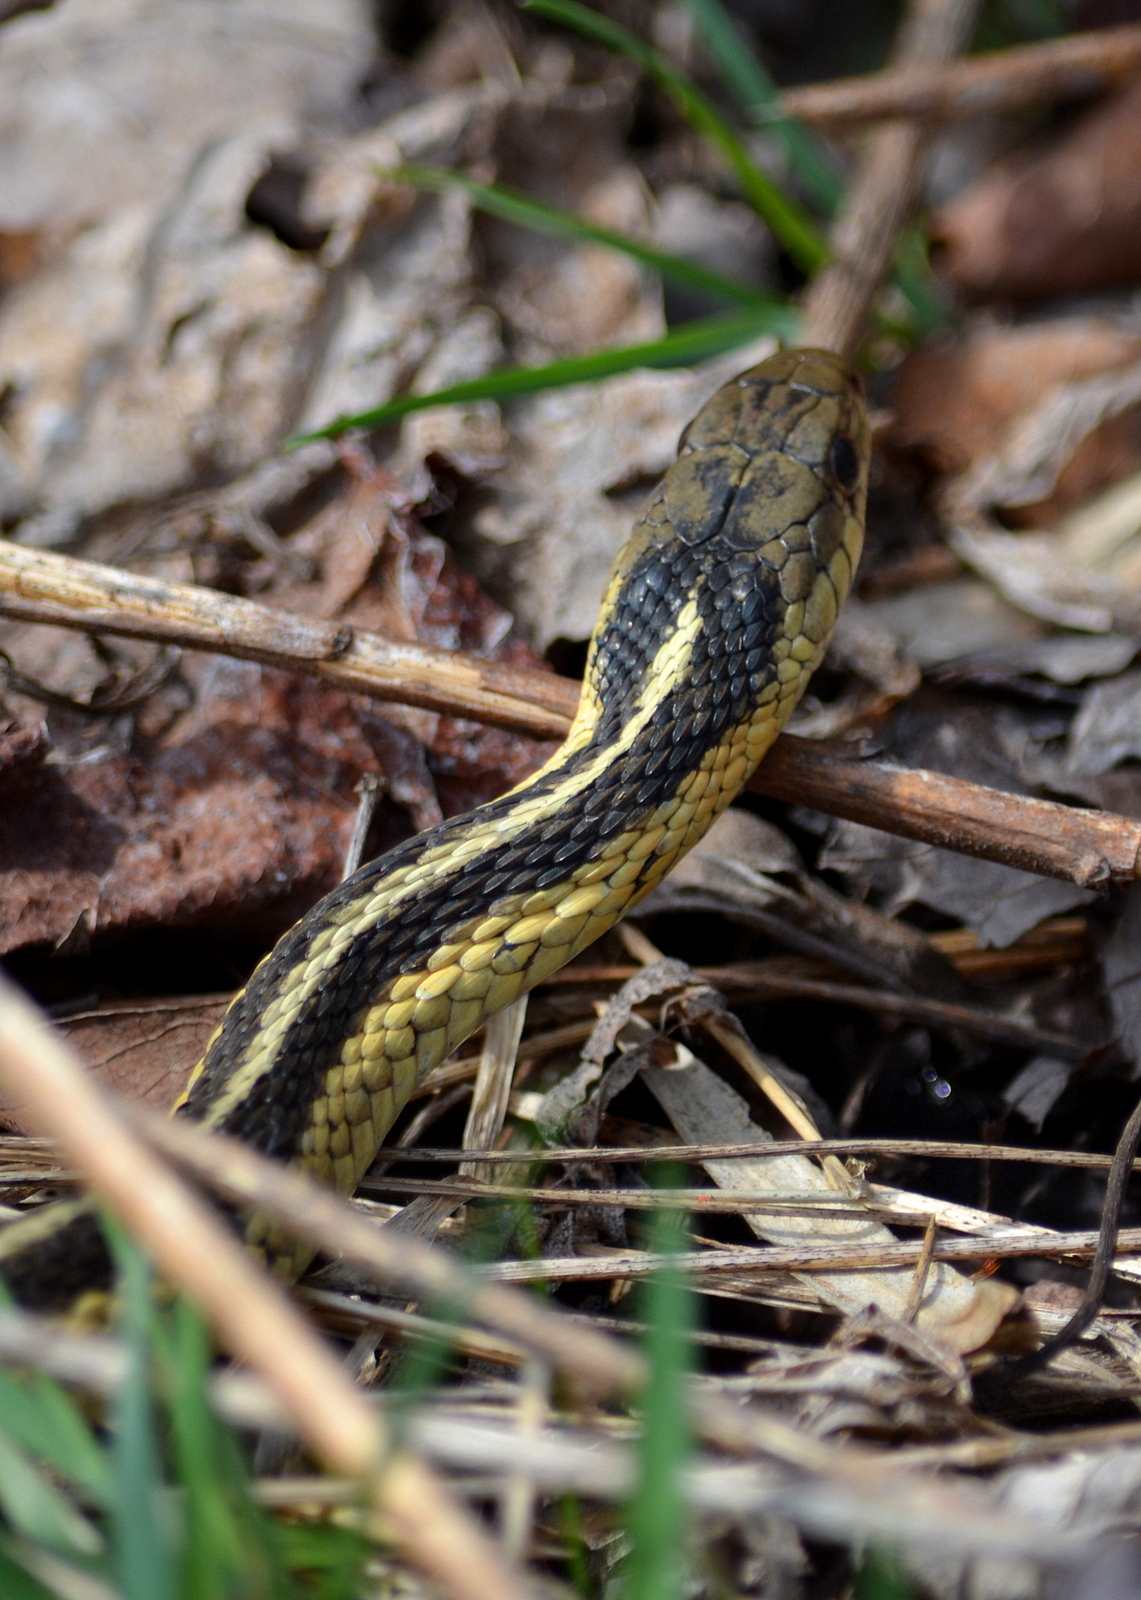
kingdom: Animalia
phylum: Chordata
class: Squamata
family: Colubridae
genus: Thamnophis
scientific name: Thamnophis sirtalis
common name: Common garter snake
